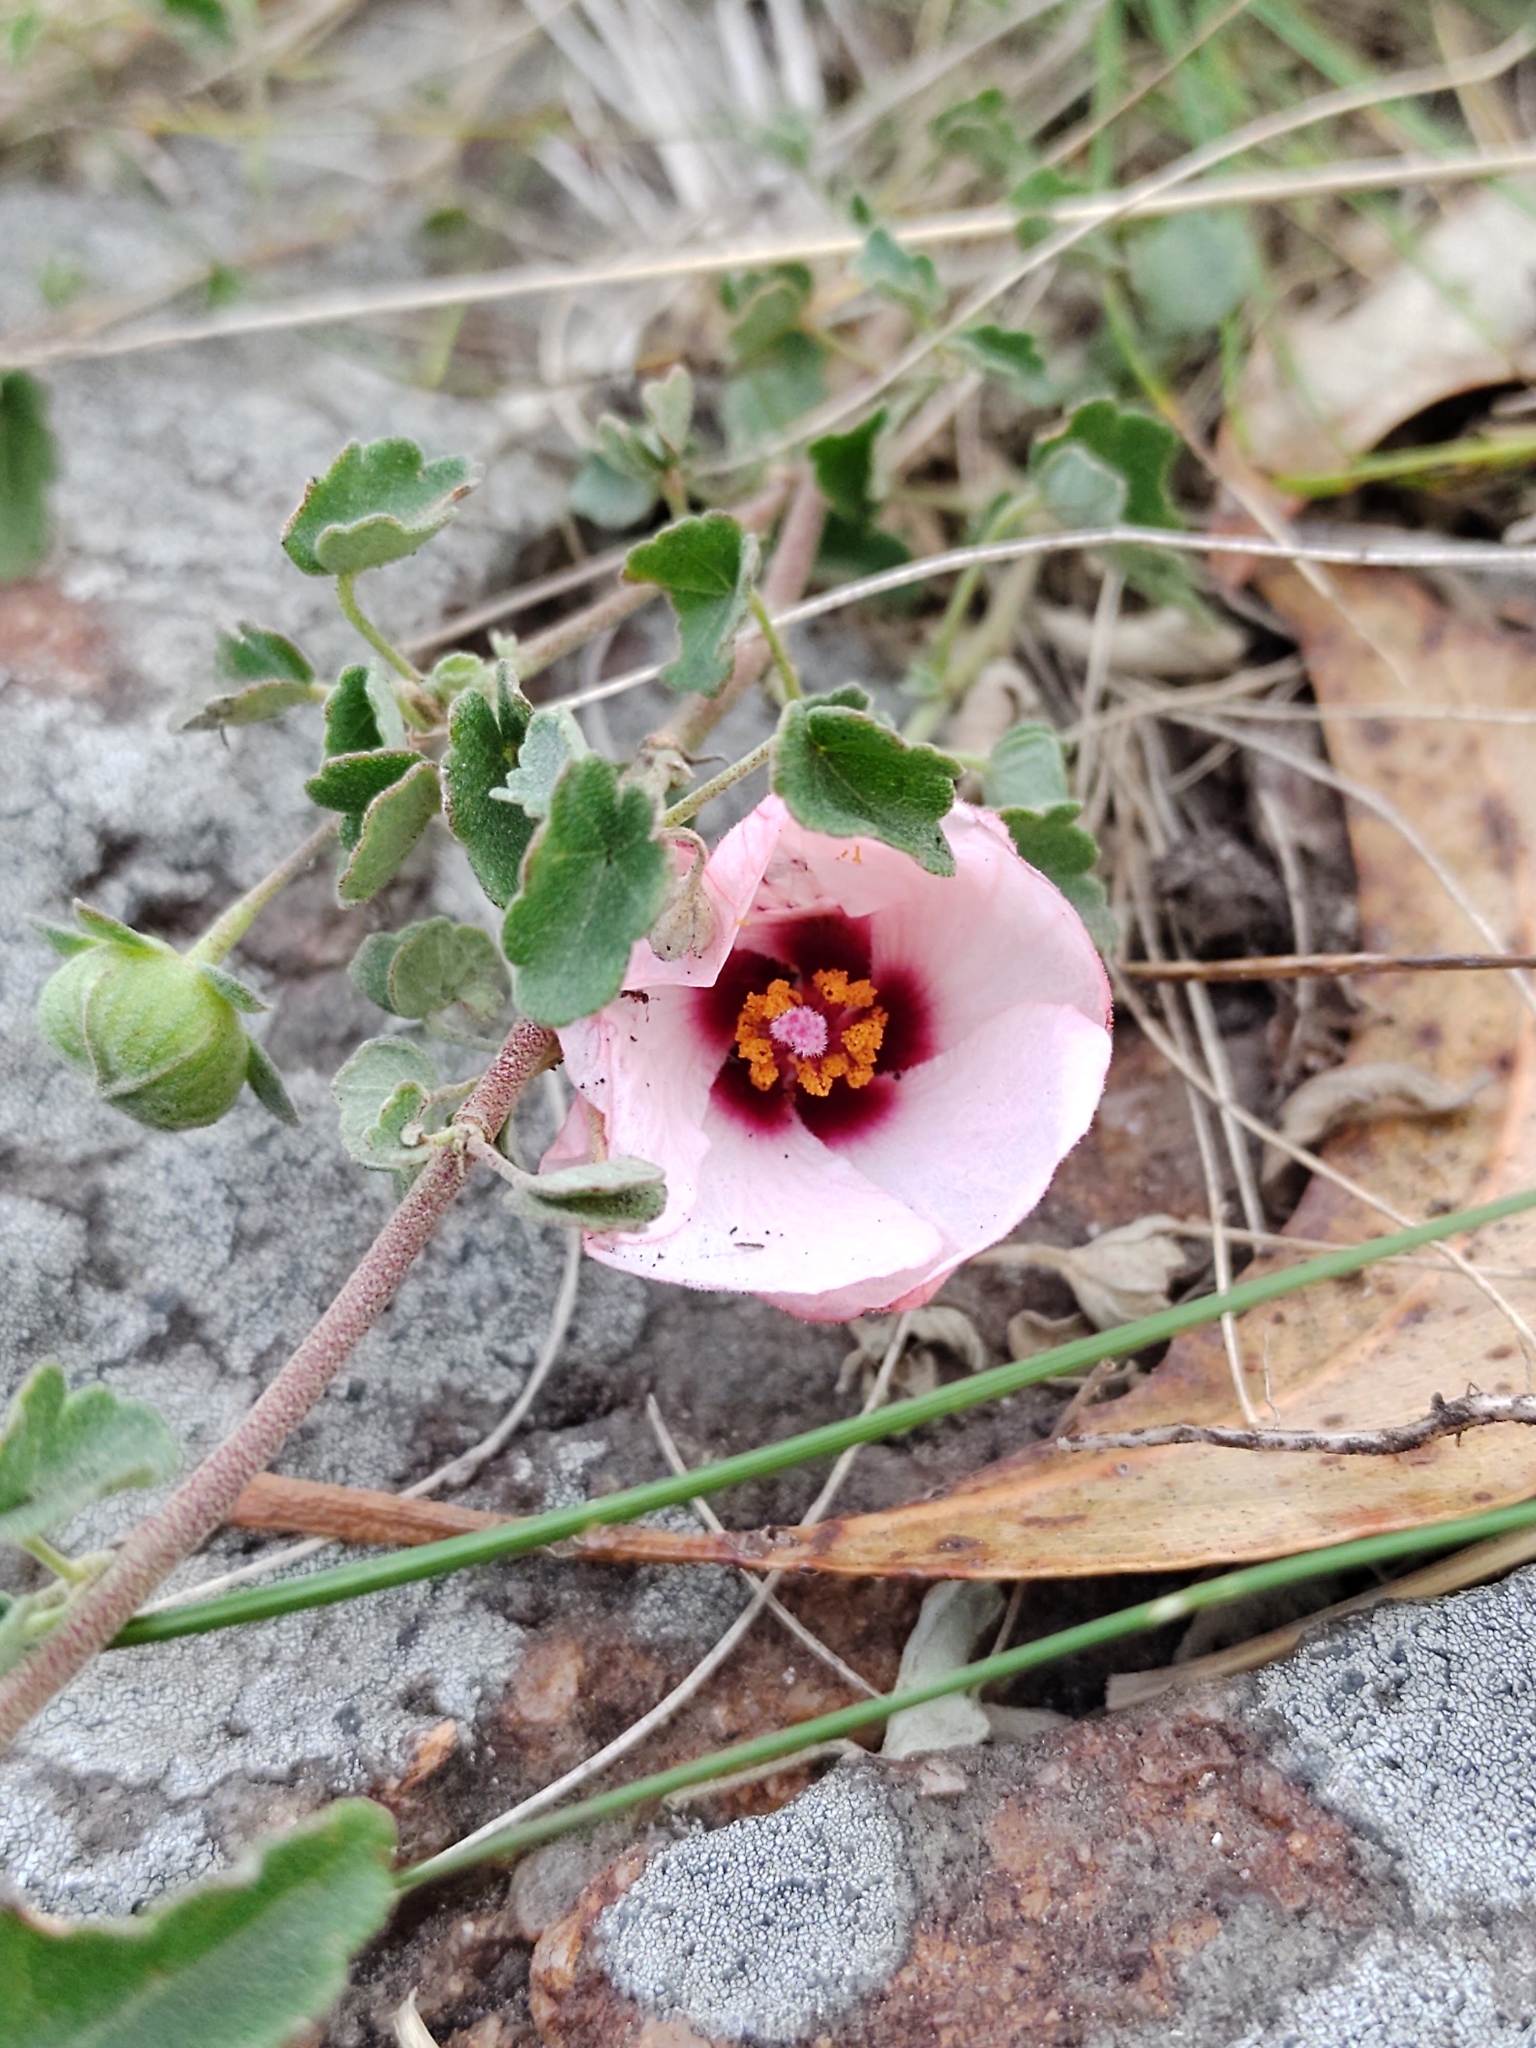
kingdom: Plantae
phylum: Tracheophyta
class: Magnoliopsida
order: Malvales
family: Malvaceae
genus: Pavonia
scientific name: Pavonia aurigloba
